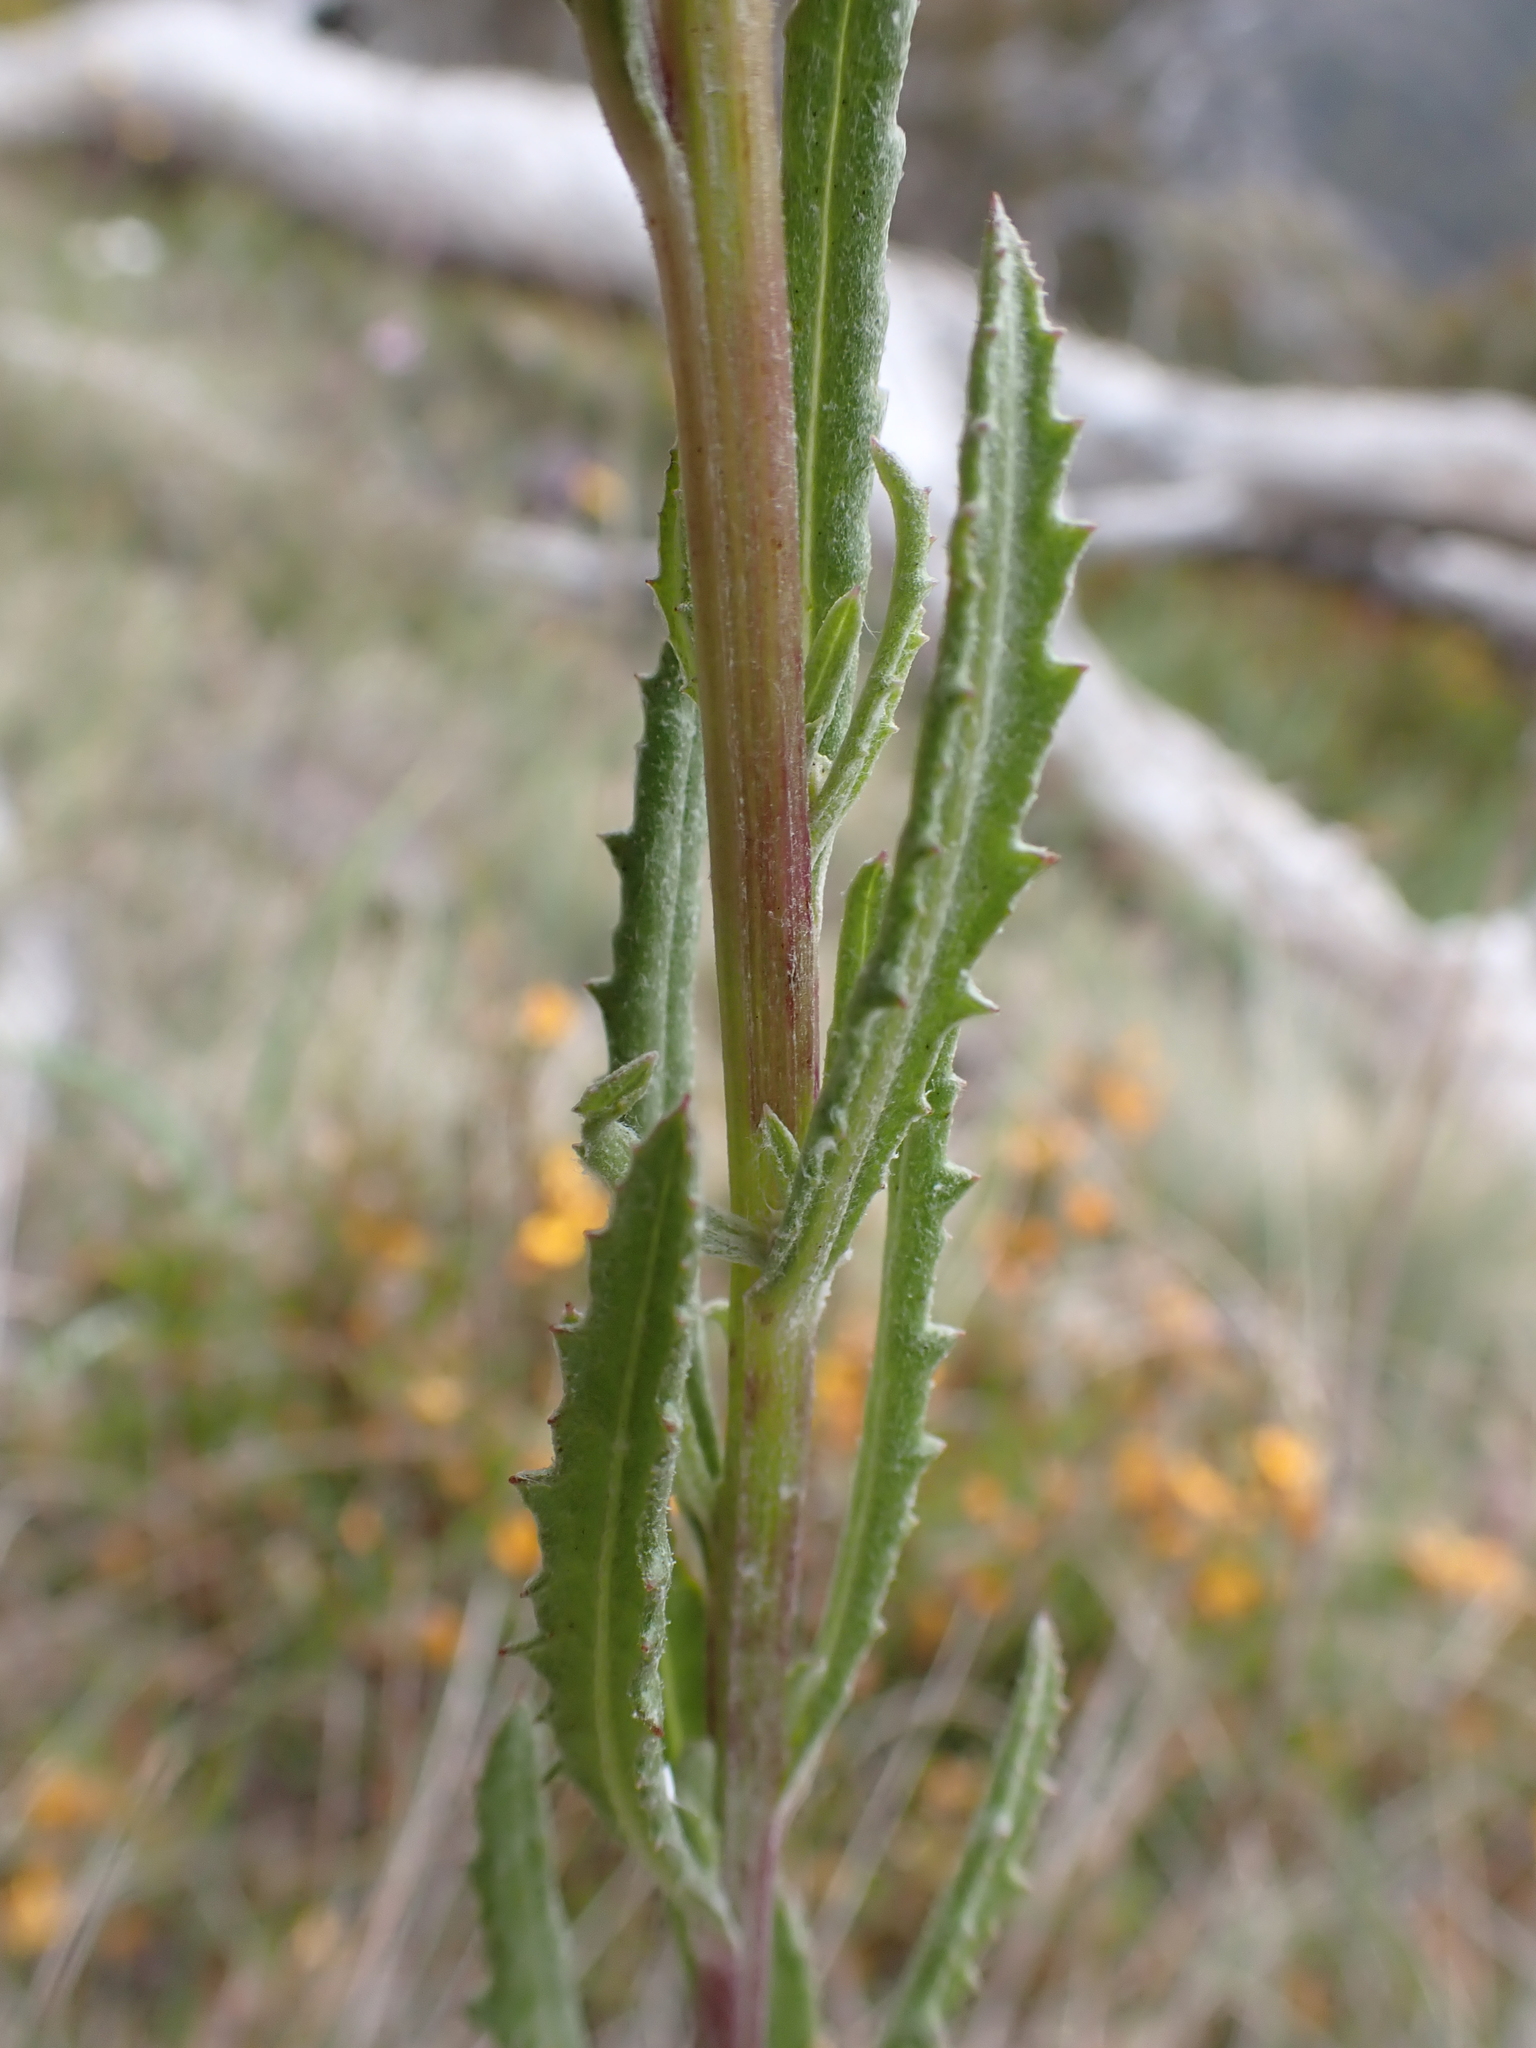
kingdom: Plantae
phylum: Tracheophyta
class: Magnoliopsida
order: Asterales
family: Asteraceae
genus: Senecio
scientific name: Senecio nigrapicus
